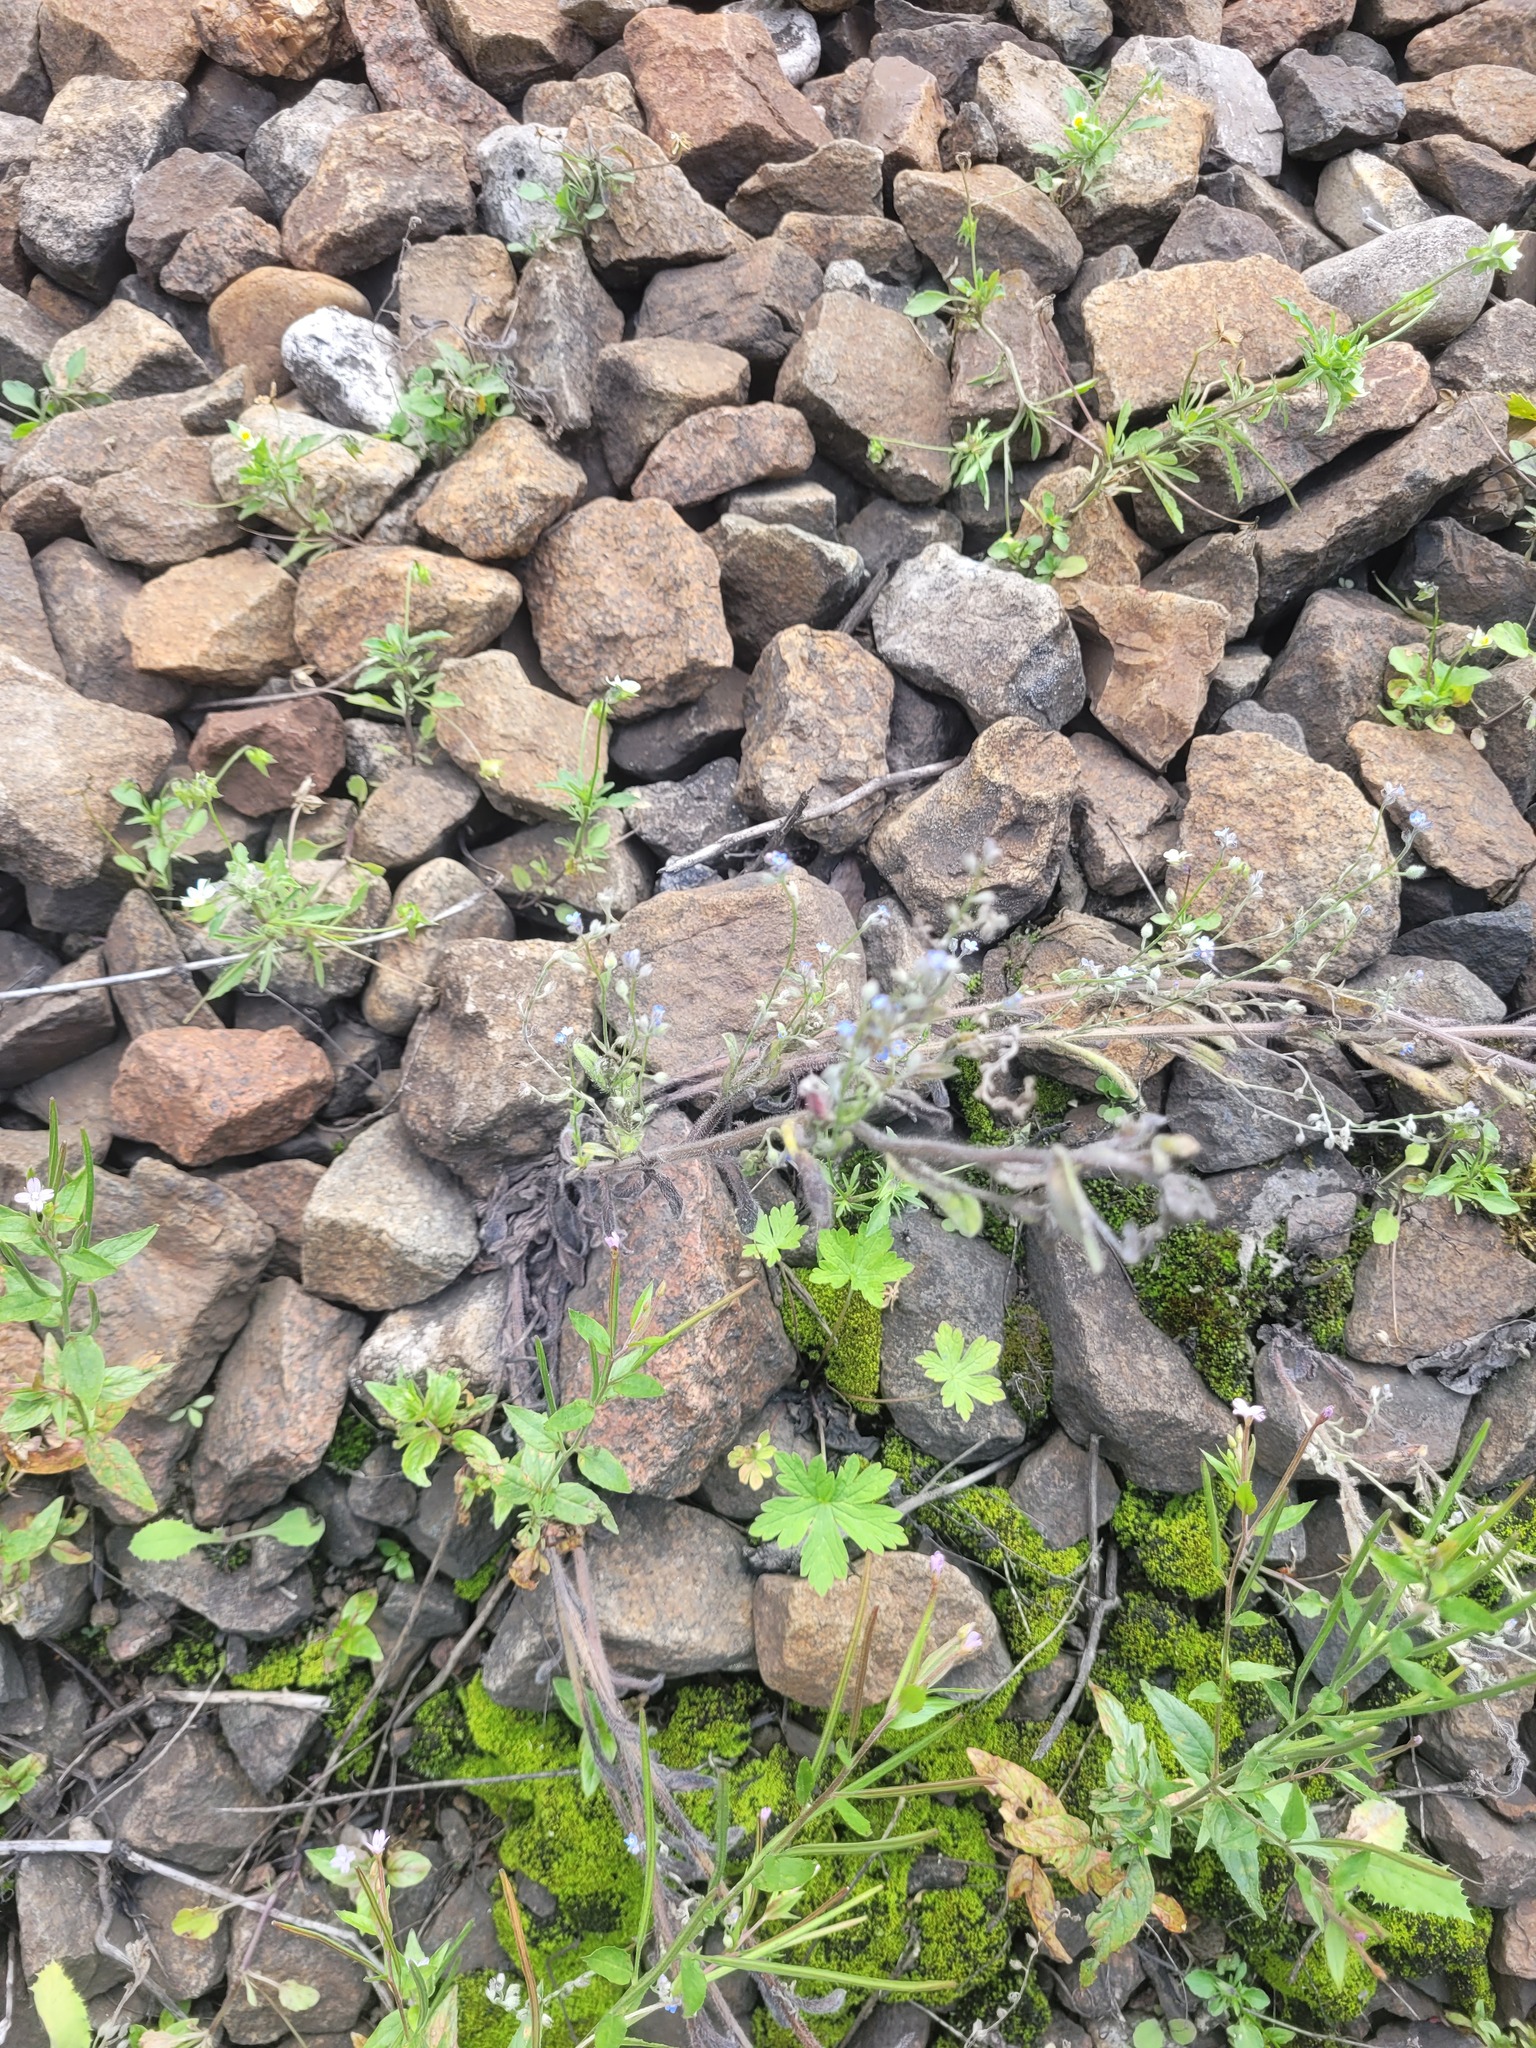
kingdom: Plantae
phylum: Tracheophyta
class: Magnoliopsida
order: Boraginales
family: Boraginaceae
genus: Myosotis
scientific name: Myosotis arvensis
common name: Field forget-me-not
